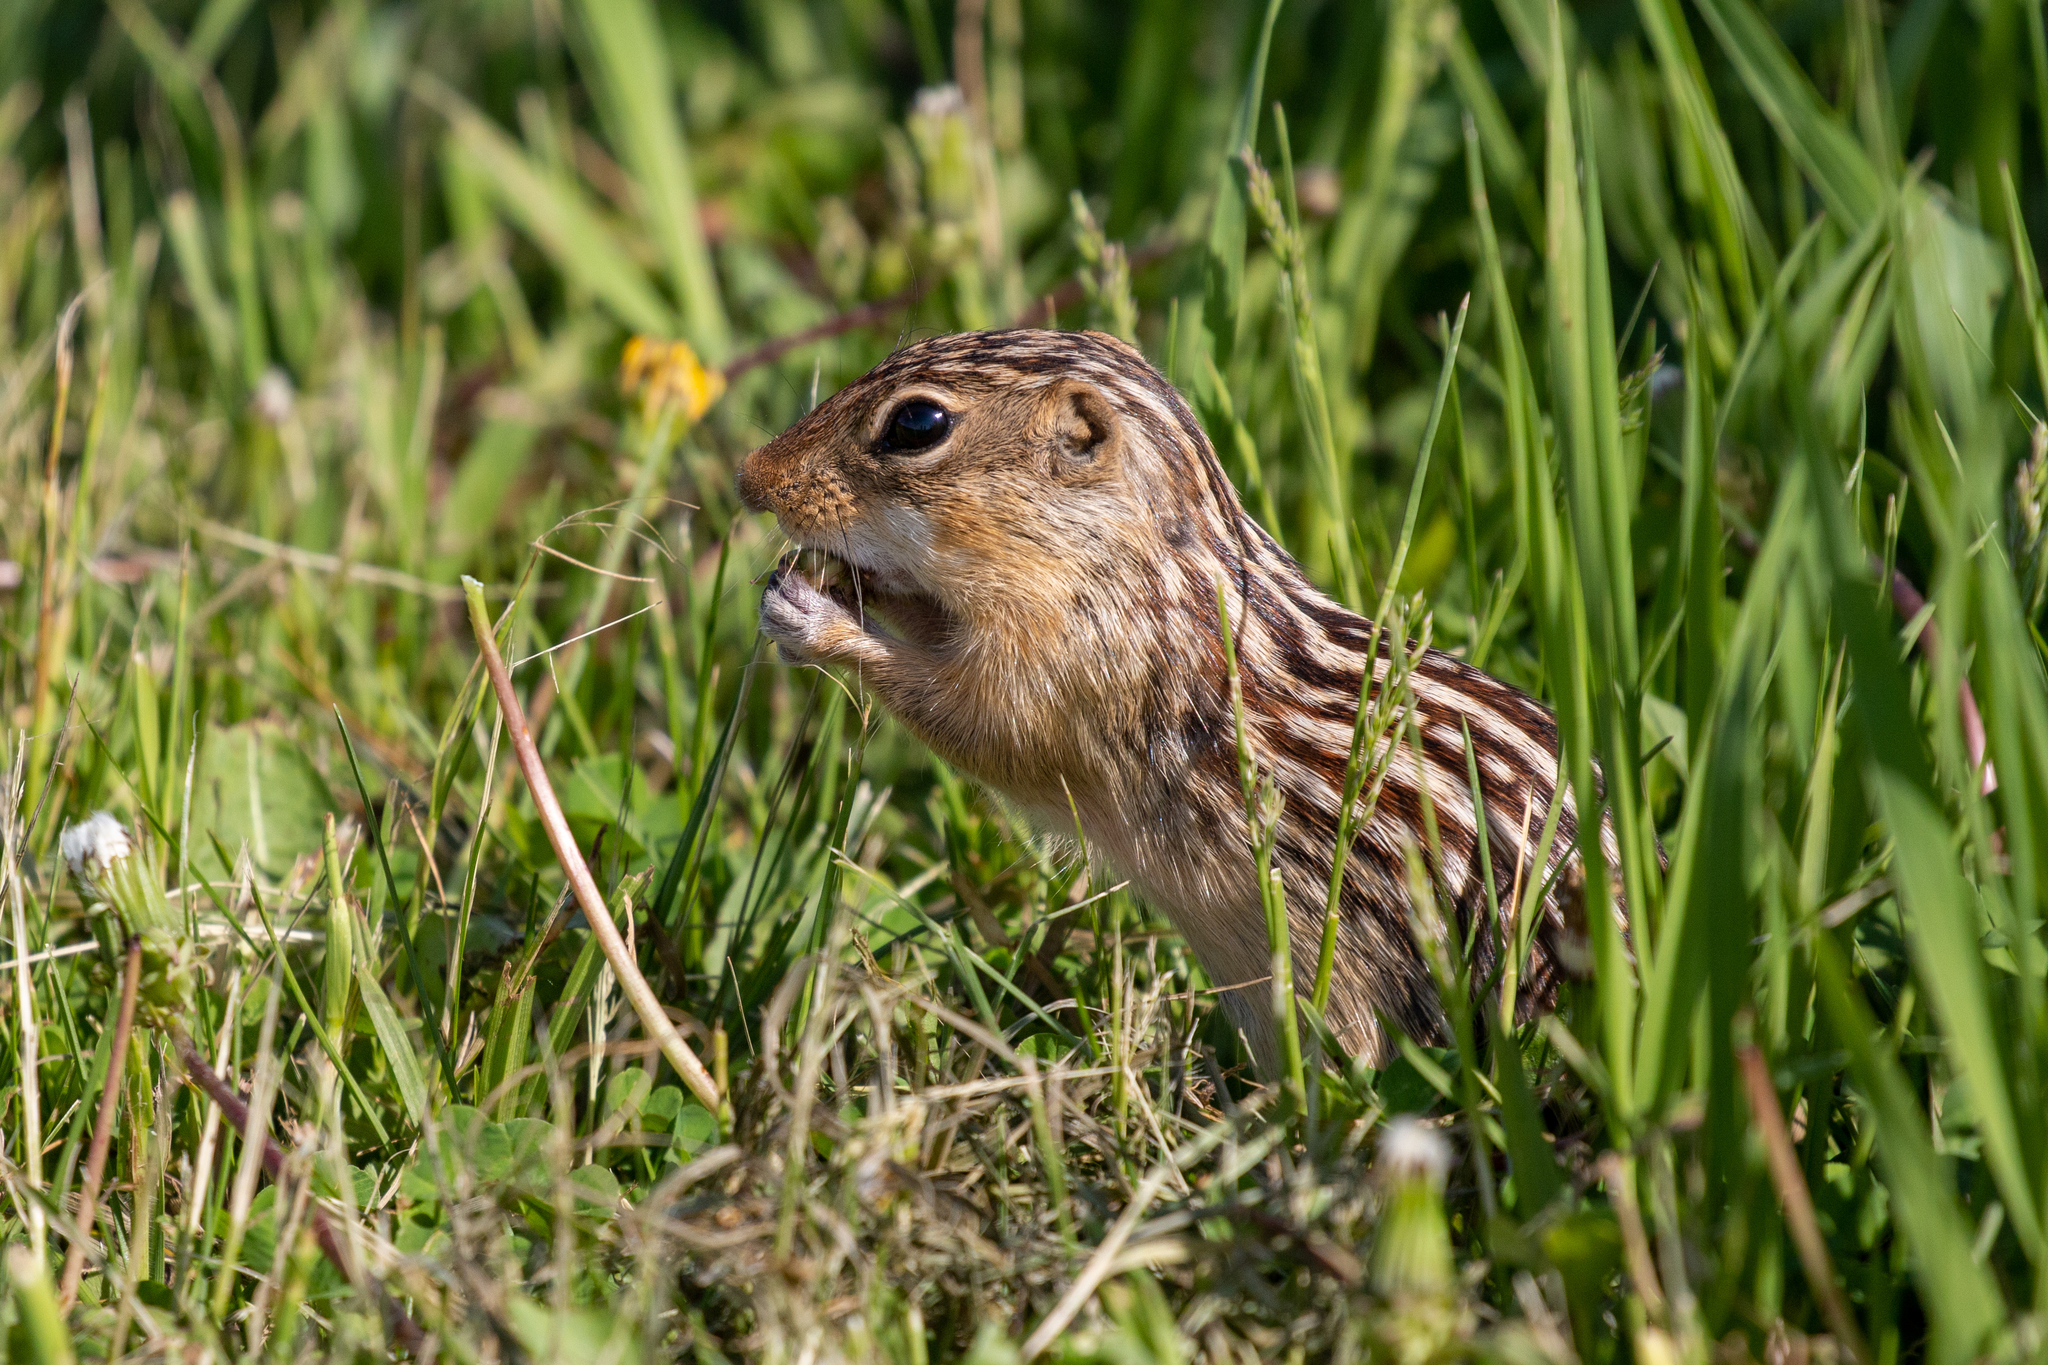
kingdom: Animalia
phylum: Chordata
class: Mammalia
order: Rodentia
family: Sciuridae
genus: Ictidomys
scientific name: Ictidomys tridecemlineatus
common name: Thirteen-lined ground squirrel
